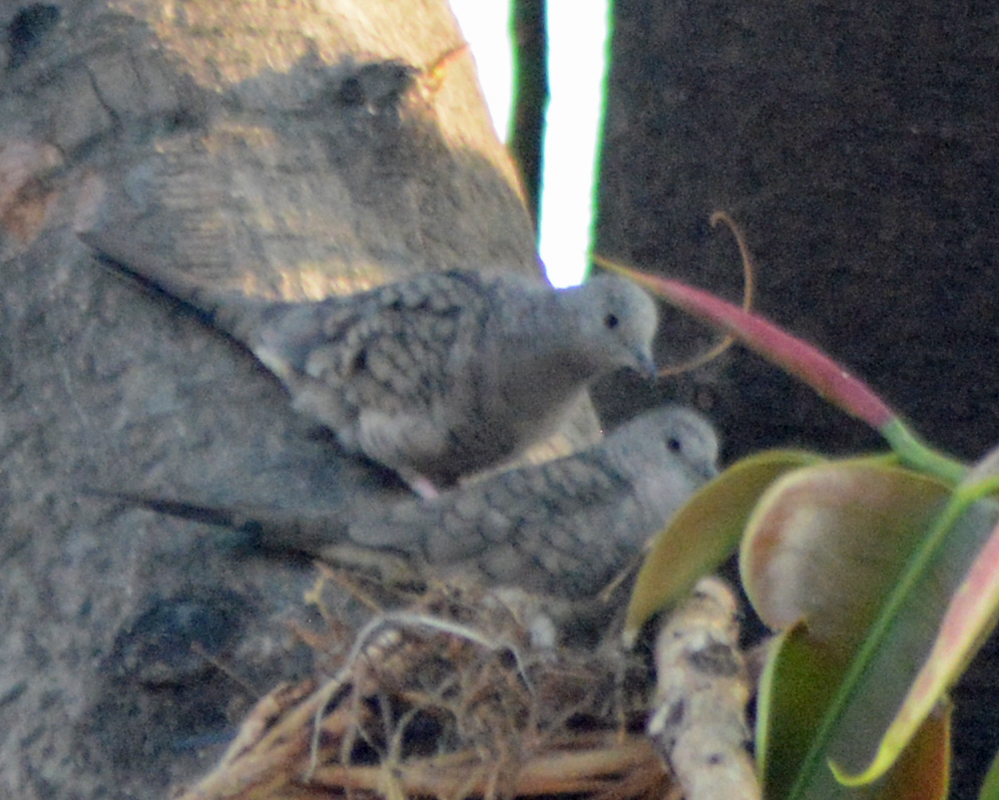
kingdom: Animalia
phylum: Chordata
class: Aves
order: Columbiformes
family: Columbidae
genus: Columbina
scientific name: Columbina inca
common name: Inca dove
